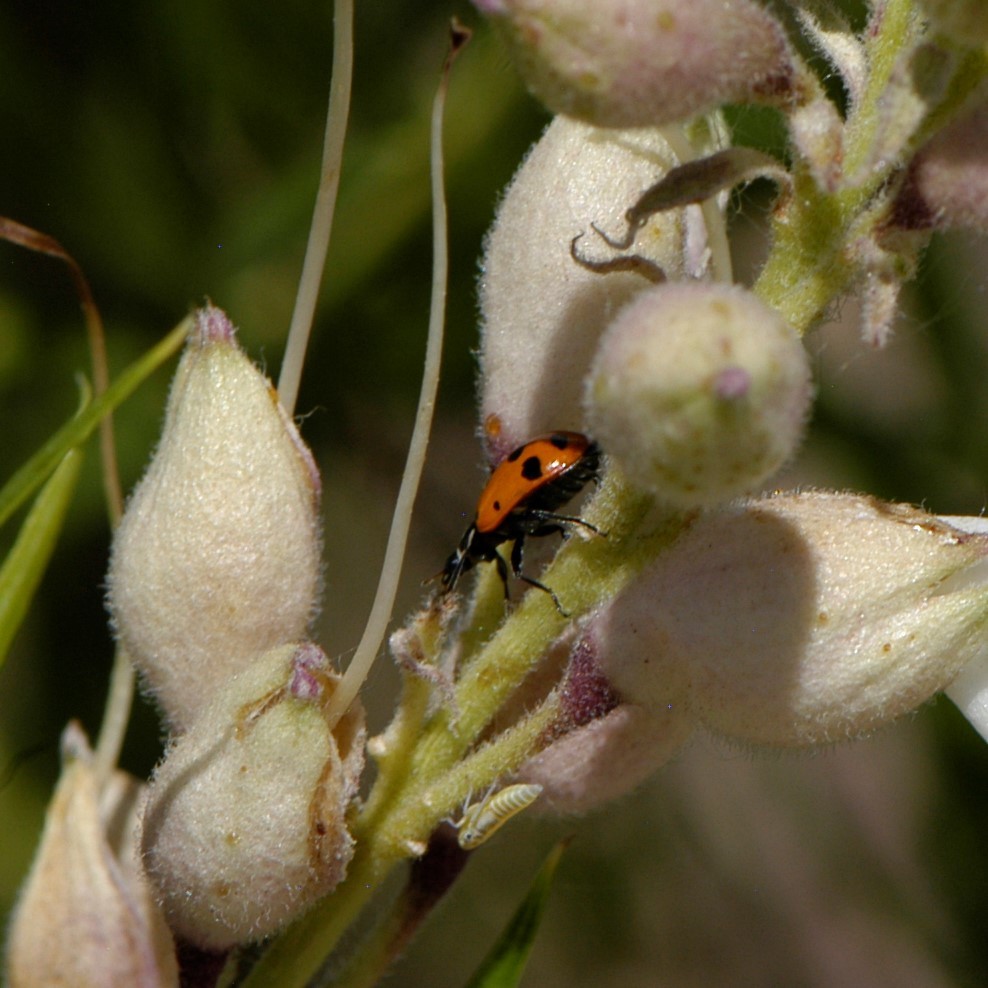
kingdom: Animalia
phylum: Arthropoda
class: Insecta
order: Coleoptera
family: Coccinellidae
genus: Hippodamia
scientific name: Hippodamia convergens
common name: Convergent lady beetle
